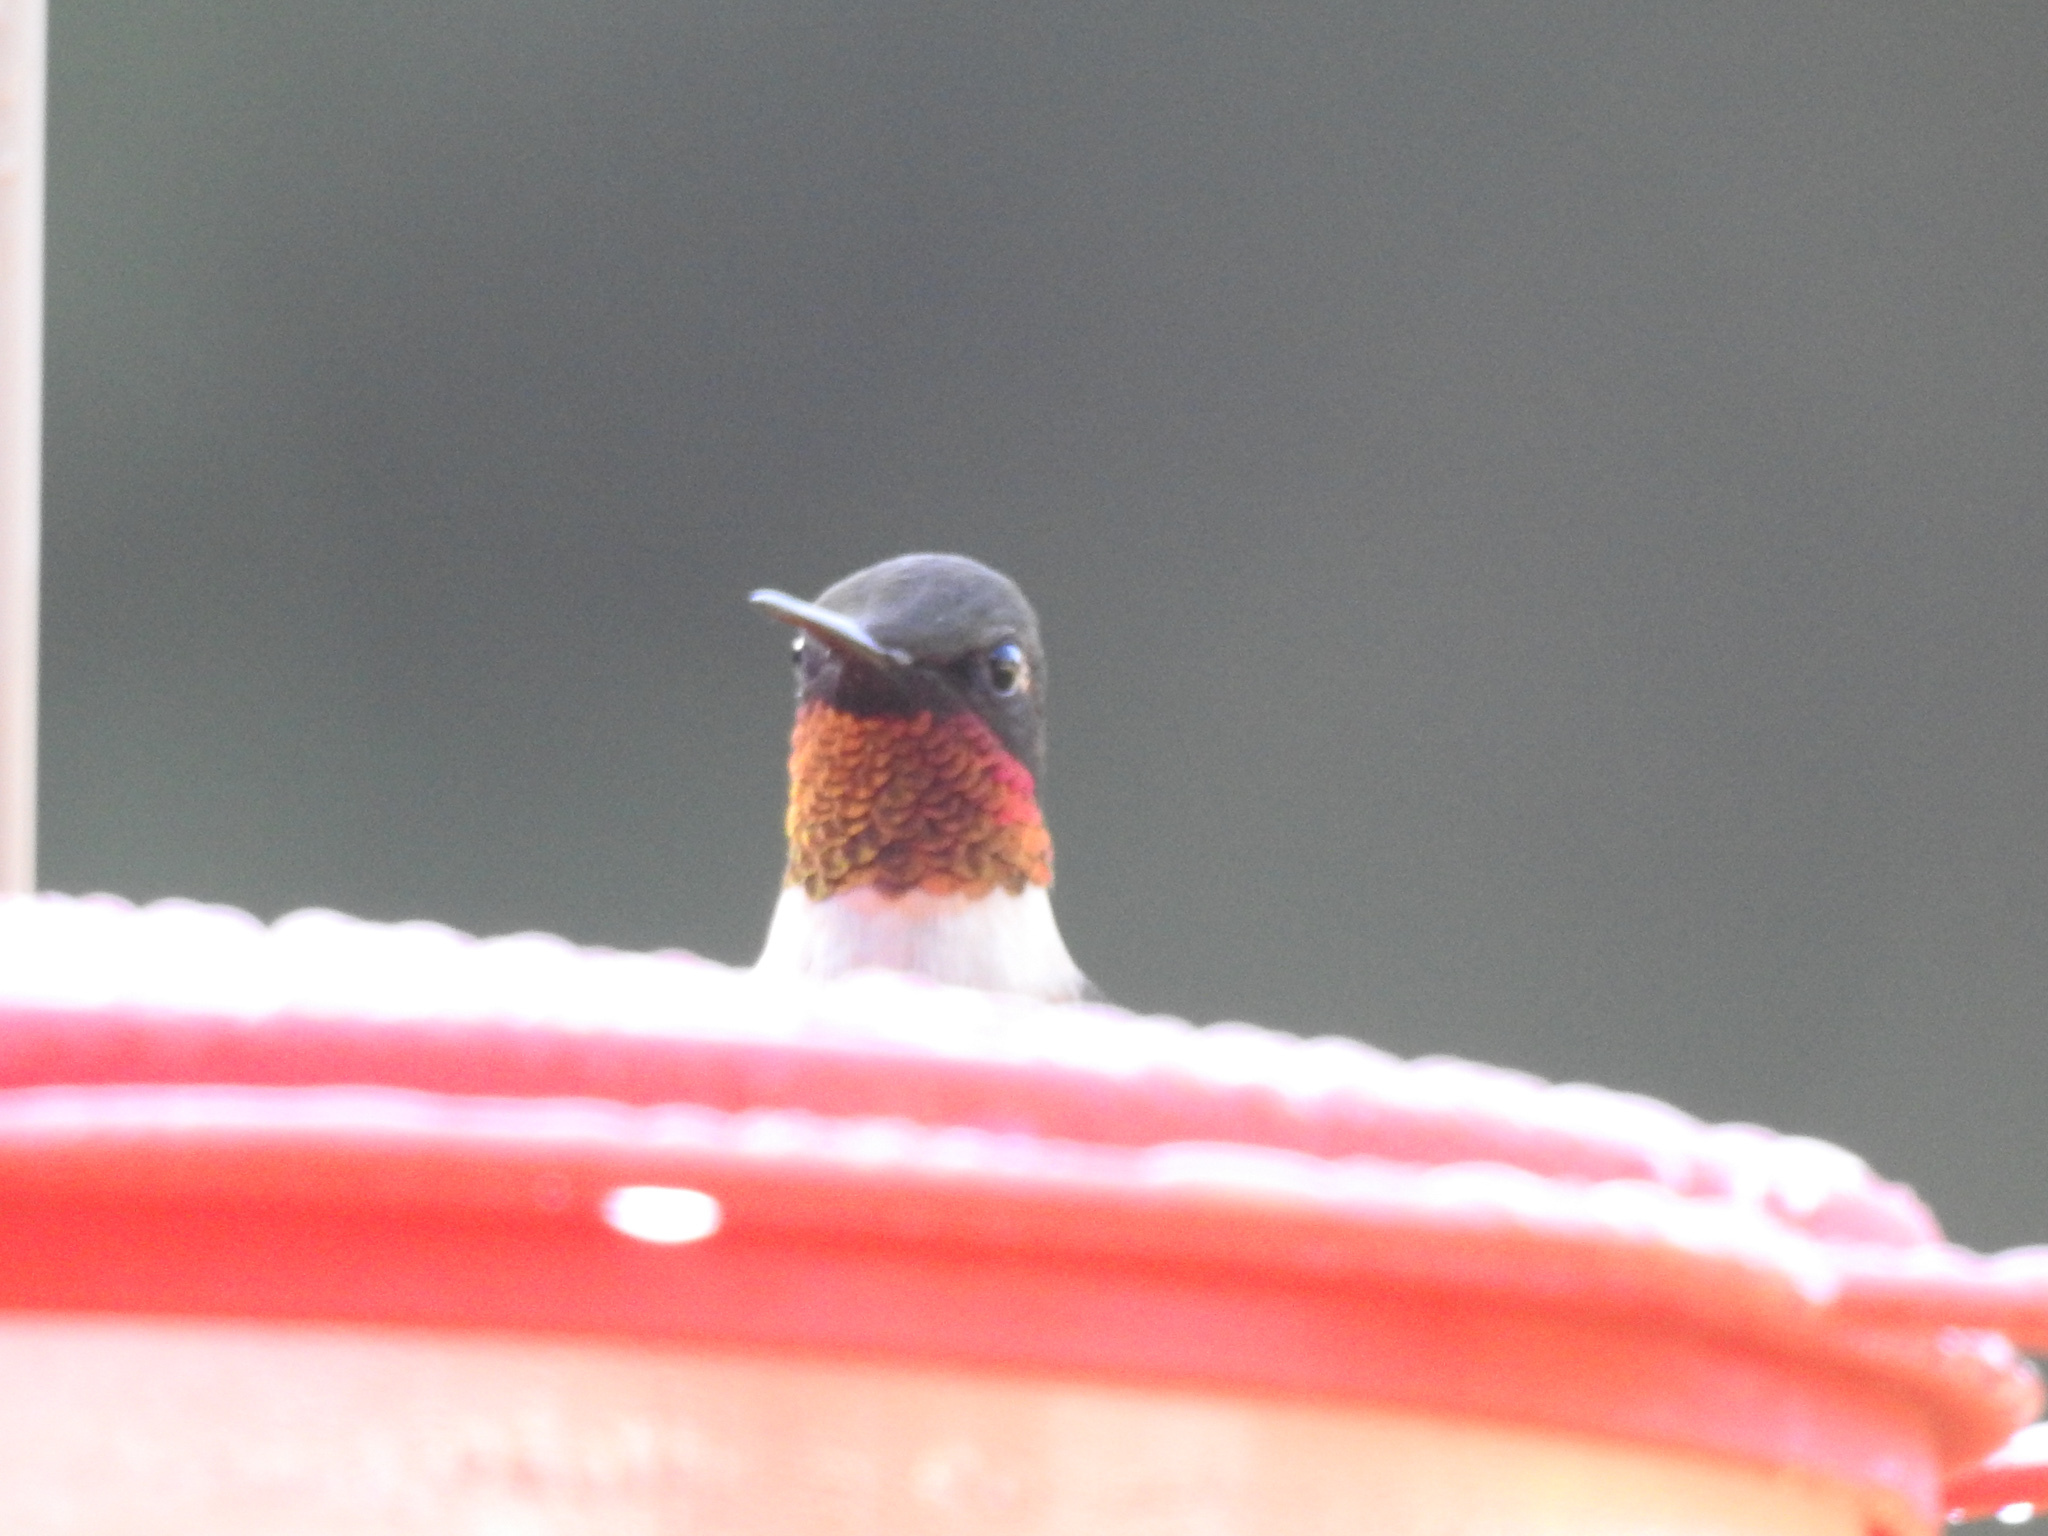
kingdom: Animalia
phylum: Chordata
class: Aves
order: Apodiformes
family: Trochilidae
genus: Archilochus
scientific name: Archilochus colubris
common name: Ruby-throated hummingbird
